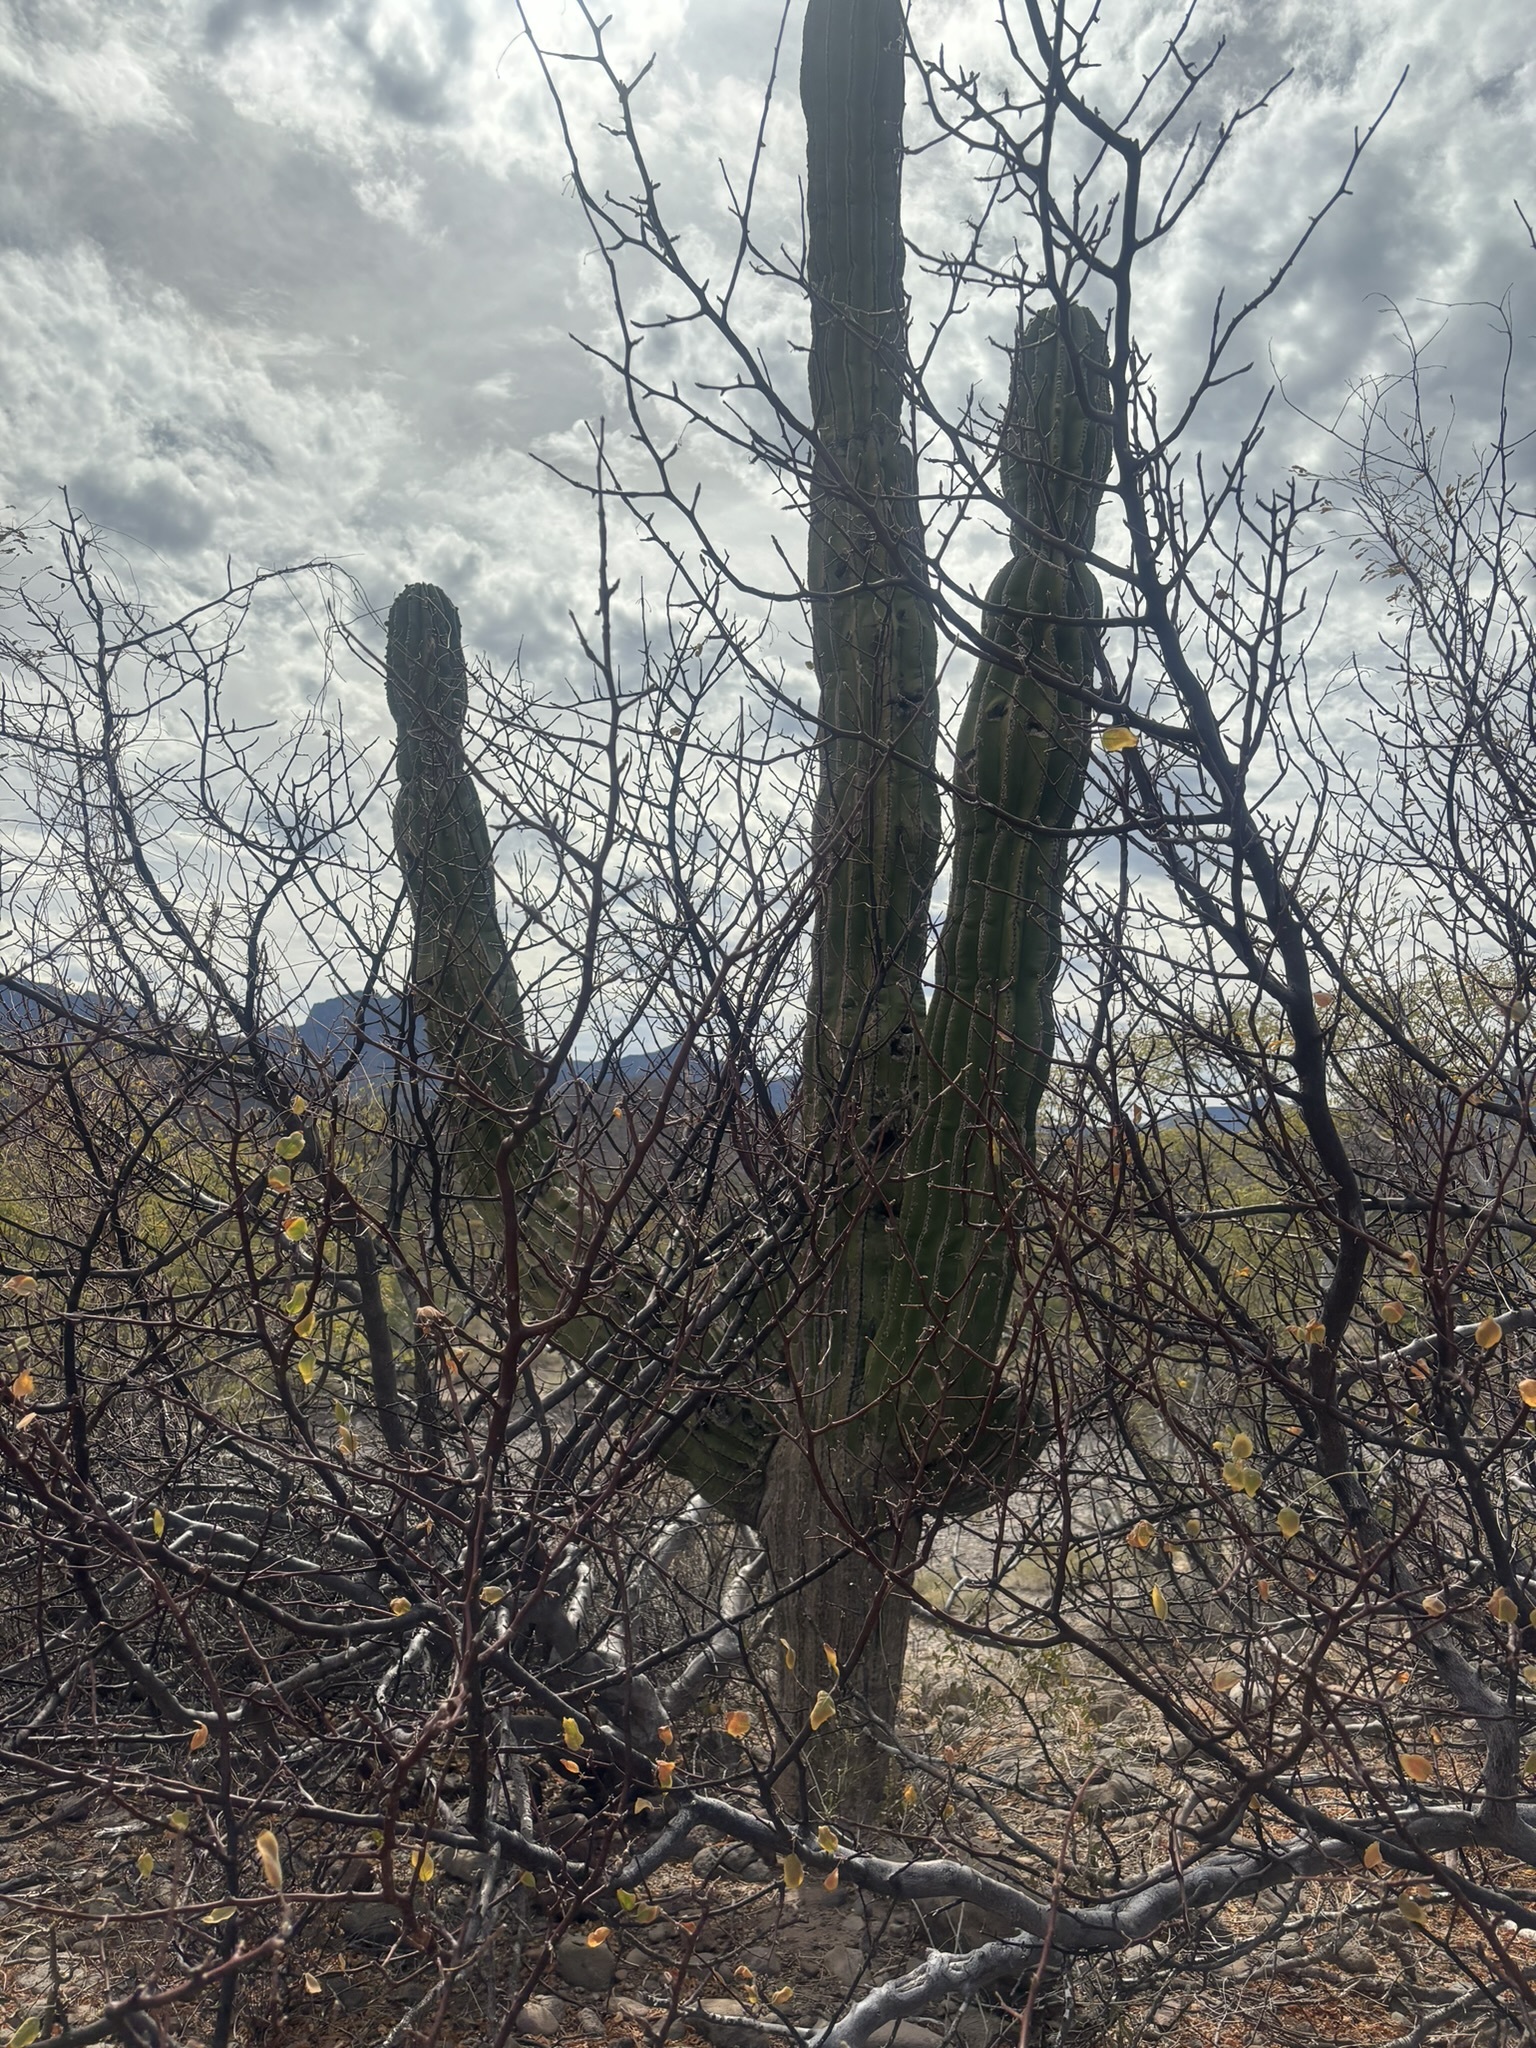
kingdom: Plantae
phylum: Tracheophyta
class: Magnoliopsida
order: Caryophyllales
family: Cactaceae
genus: Pachycereus
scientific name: Pachycereus pringlei
